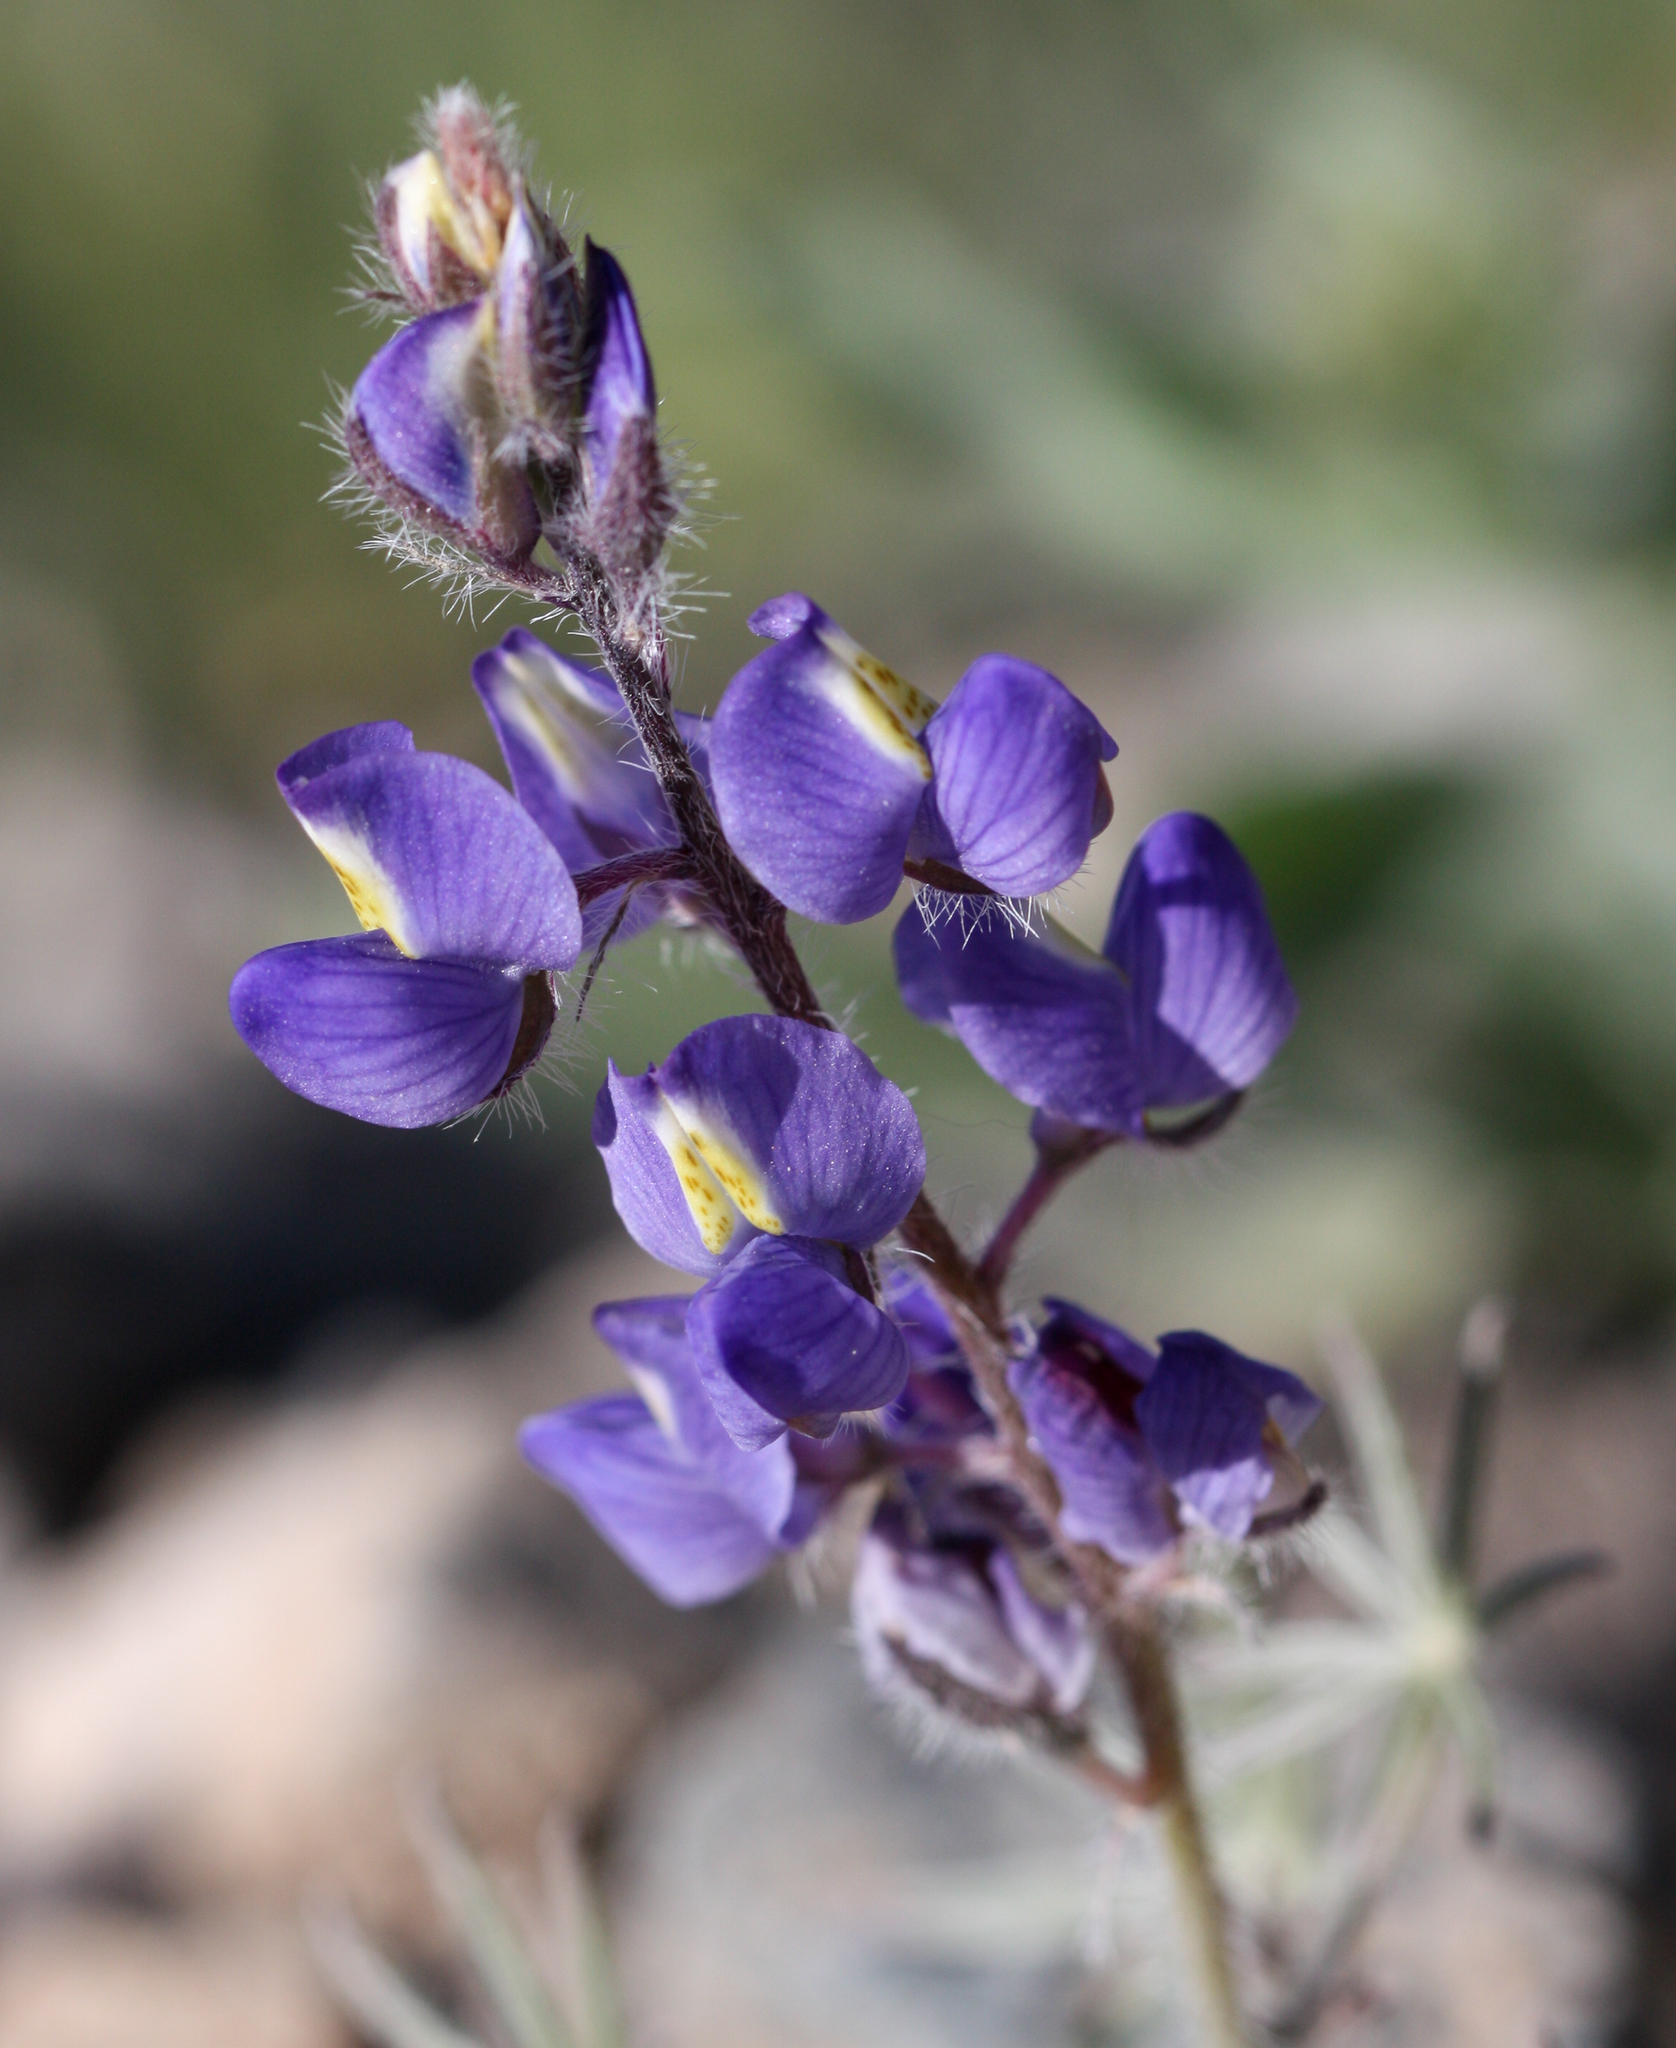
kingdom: Plantae
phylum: Tracheophyta
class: Magnoliopsida
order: Fabales
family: Fabaceae
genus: Lupinus
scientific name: Lupinus sparsiflorus
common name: Coulter's lupine
